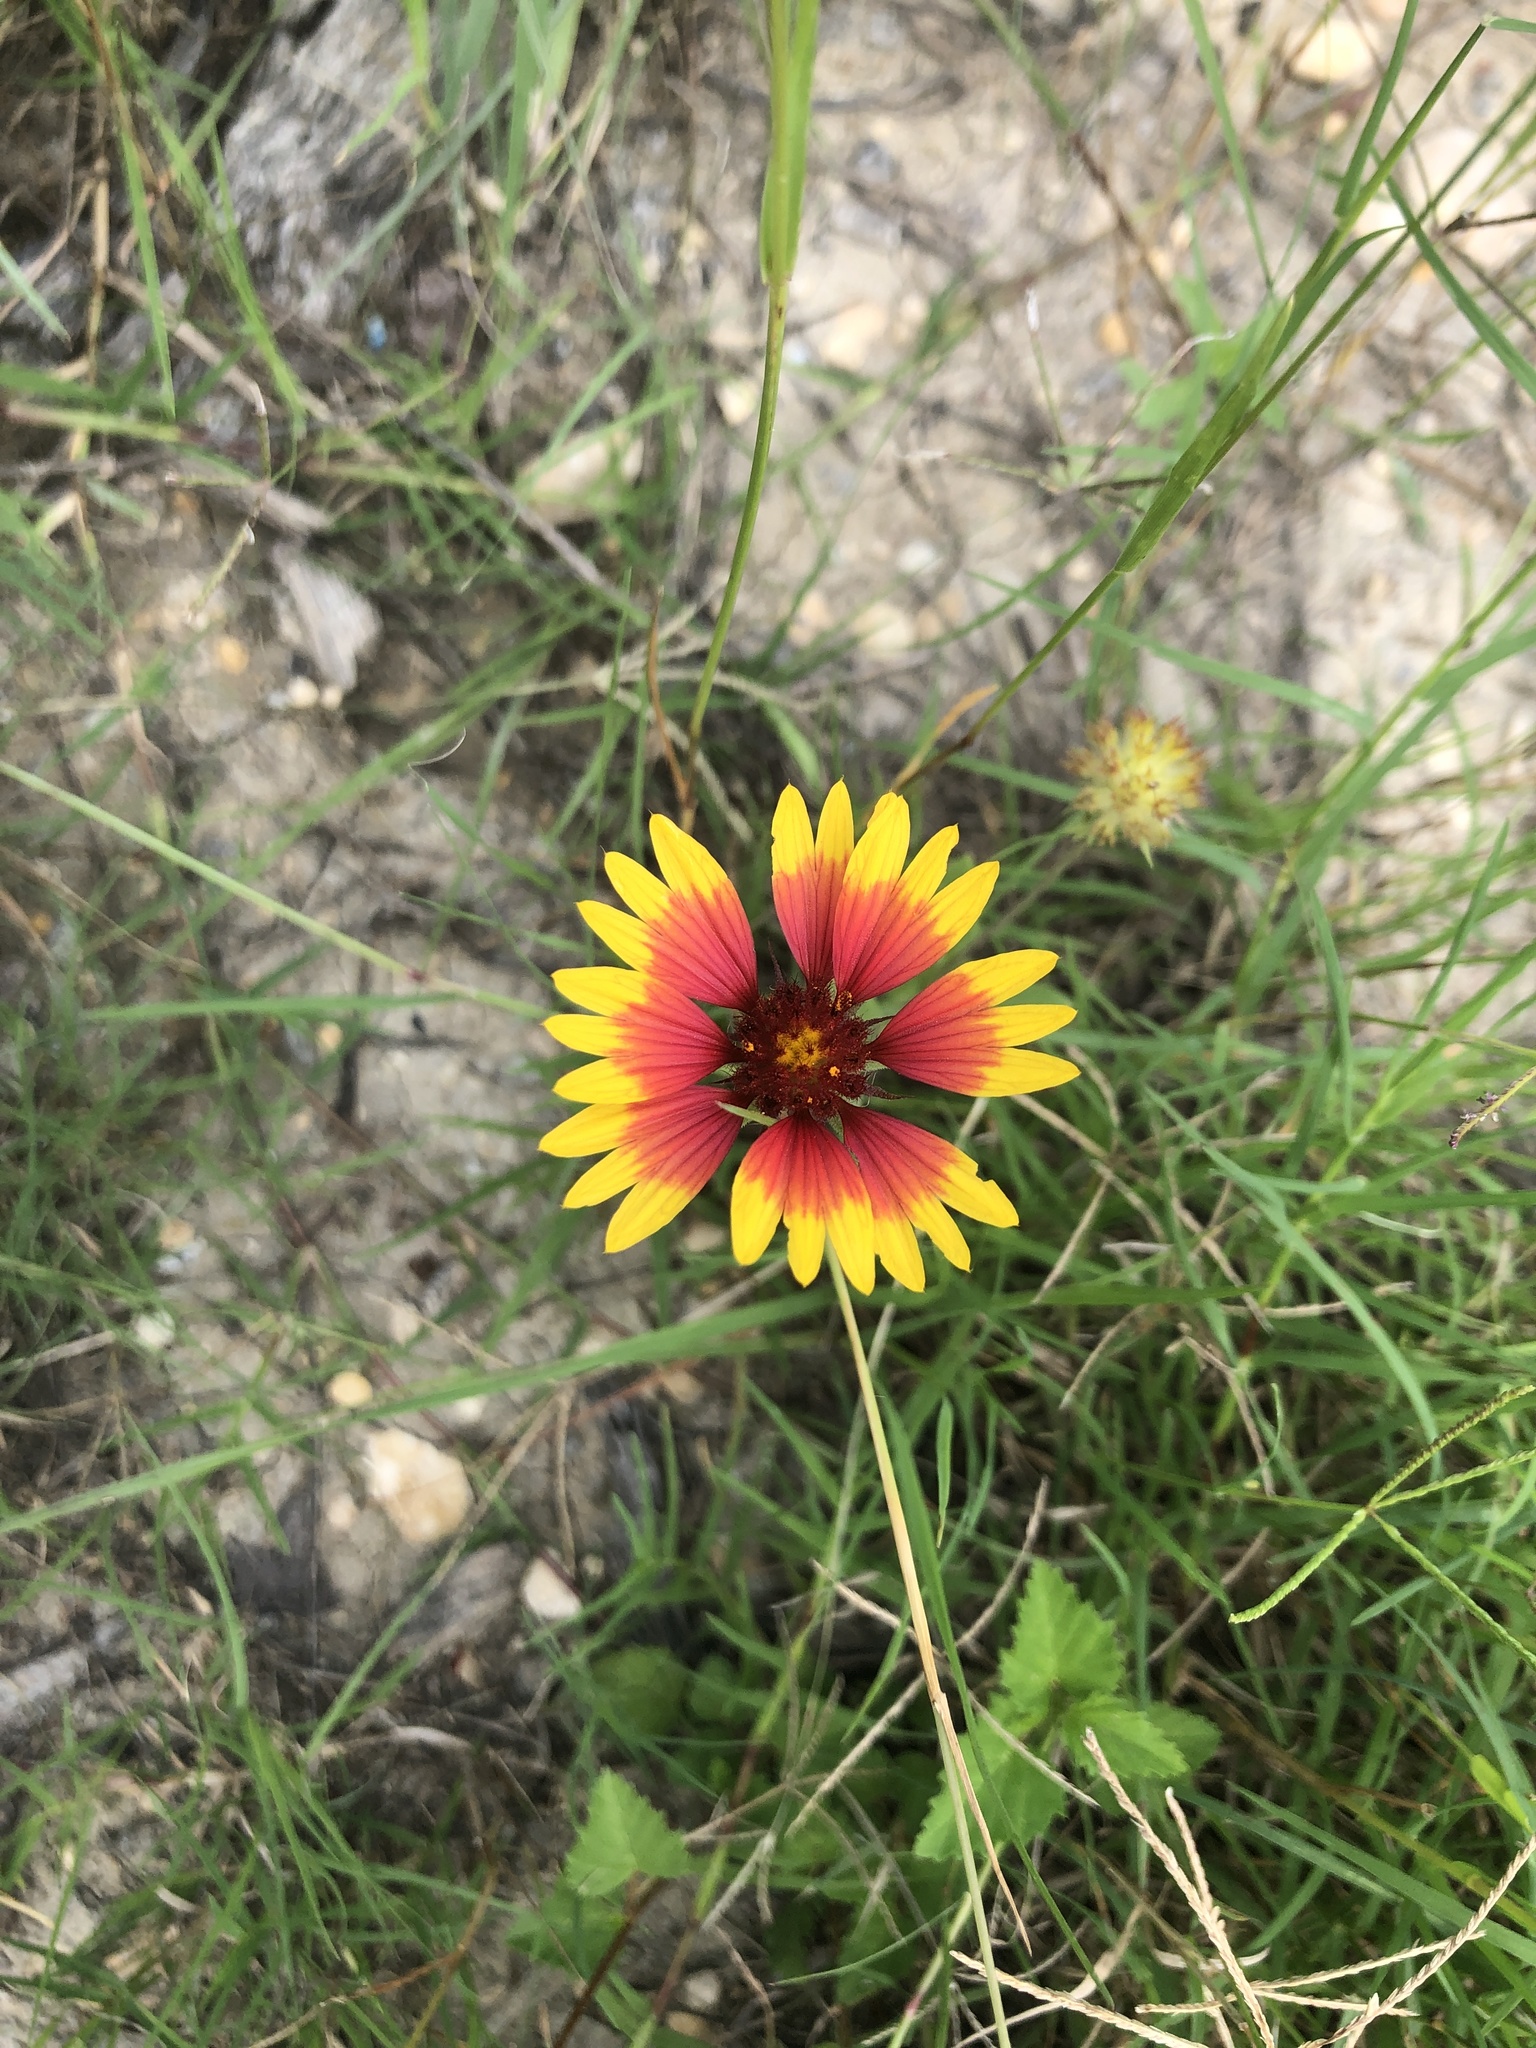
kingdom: Plantae
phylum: Tracheophyta
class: Magnoliopsida
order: Asterales
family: Asteraceae
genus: Gaillardia
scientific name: Gaillardia pulchella
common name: Firewheel
